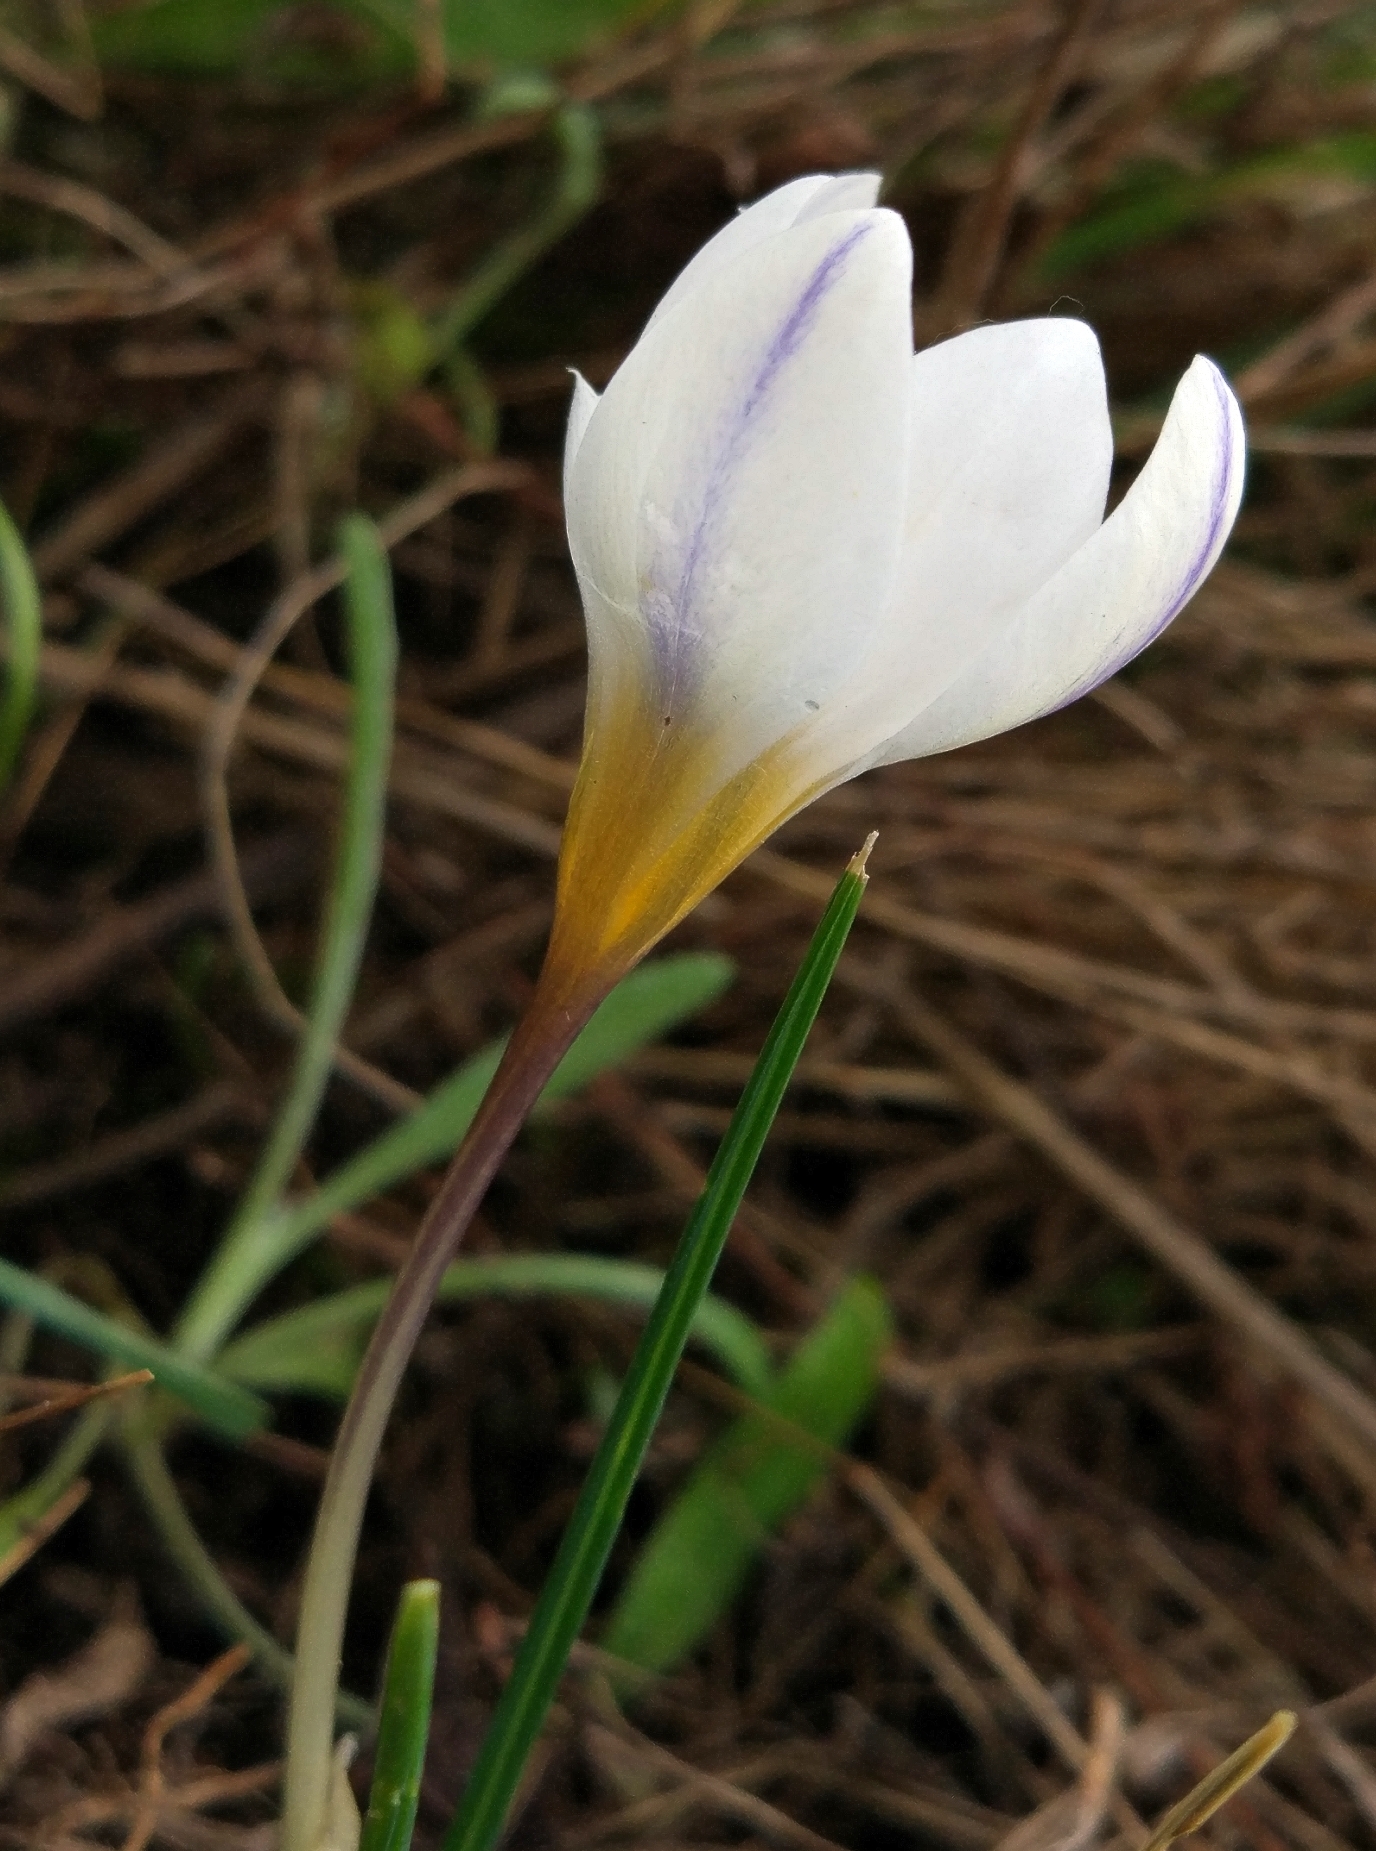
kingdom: Plantae
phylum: Tracheophyta
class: Liliopsida
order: Asparagales
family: Iridaceae
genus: Crocus
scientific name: Crocus adamioides
